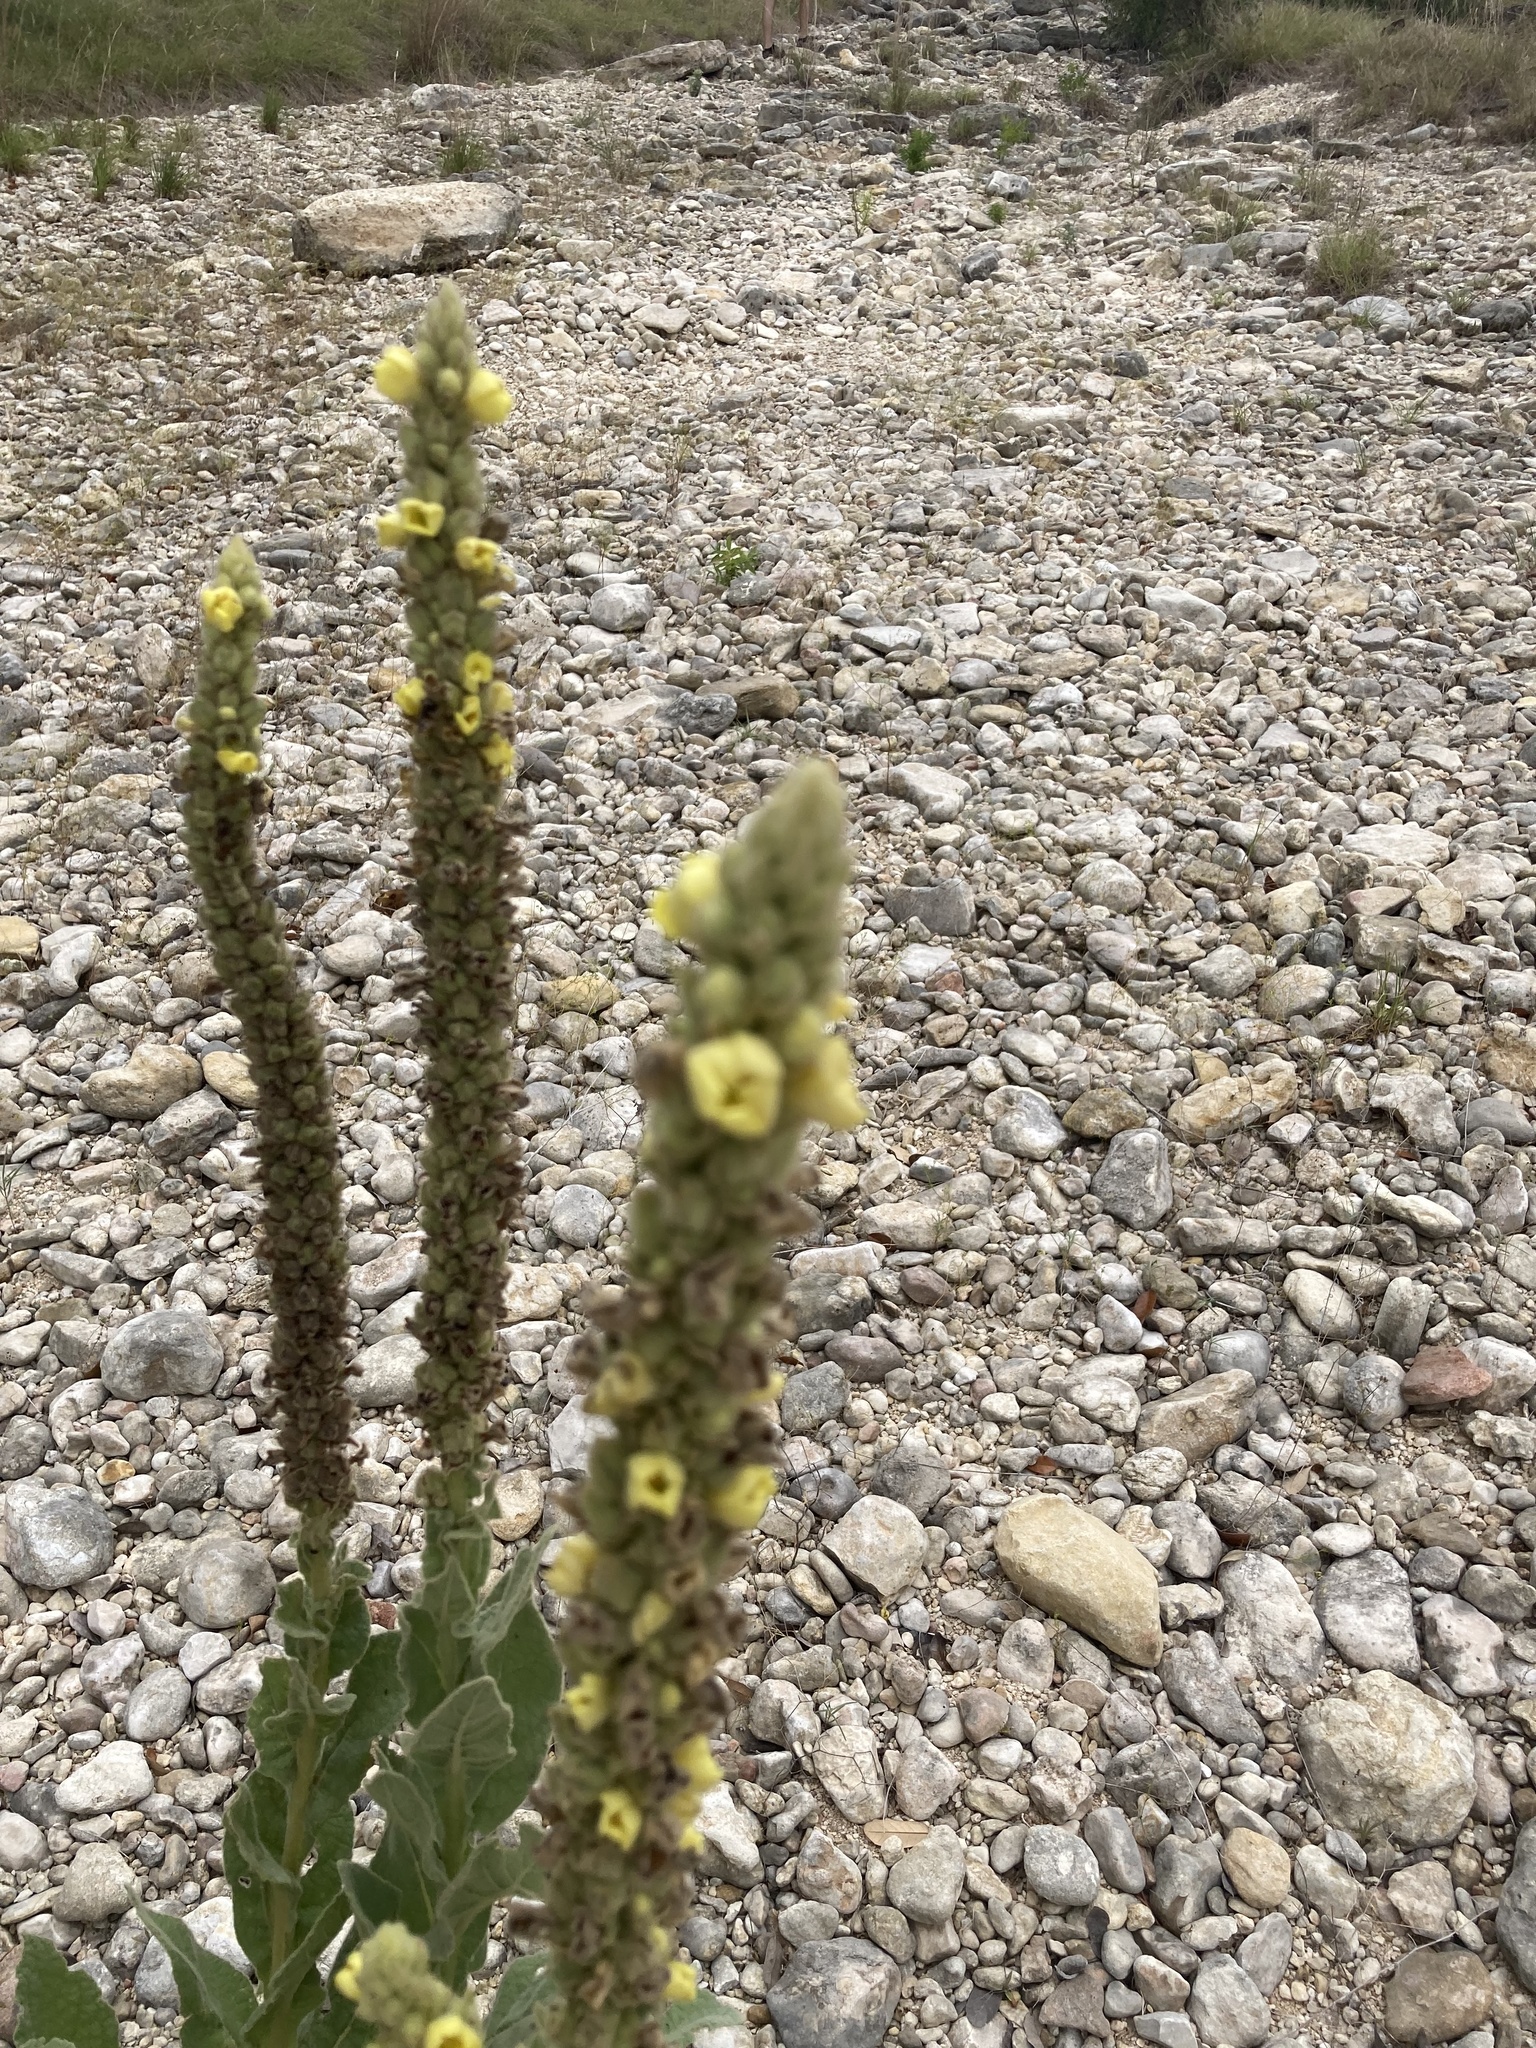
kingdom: Plantae
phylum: Tracheophyta
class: Magnoliopsida
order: Lamiales
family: Scrophulariaceae
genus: Verbascum
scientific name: Verbascum thapsus
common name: Common mullein
